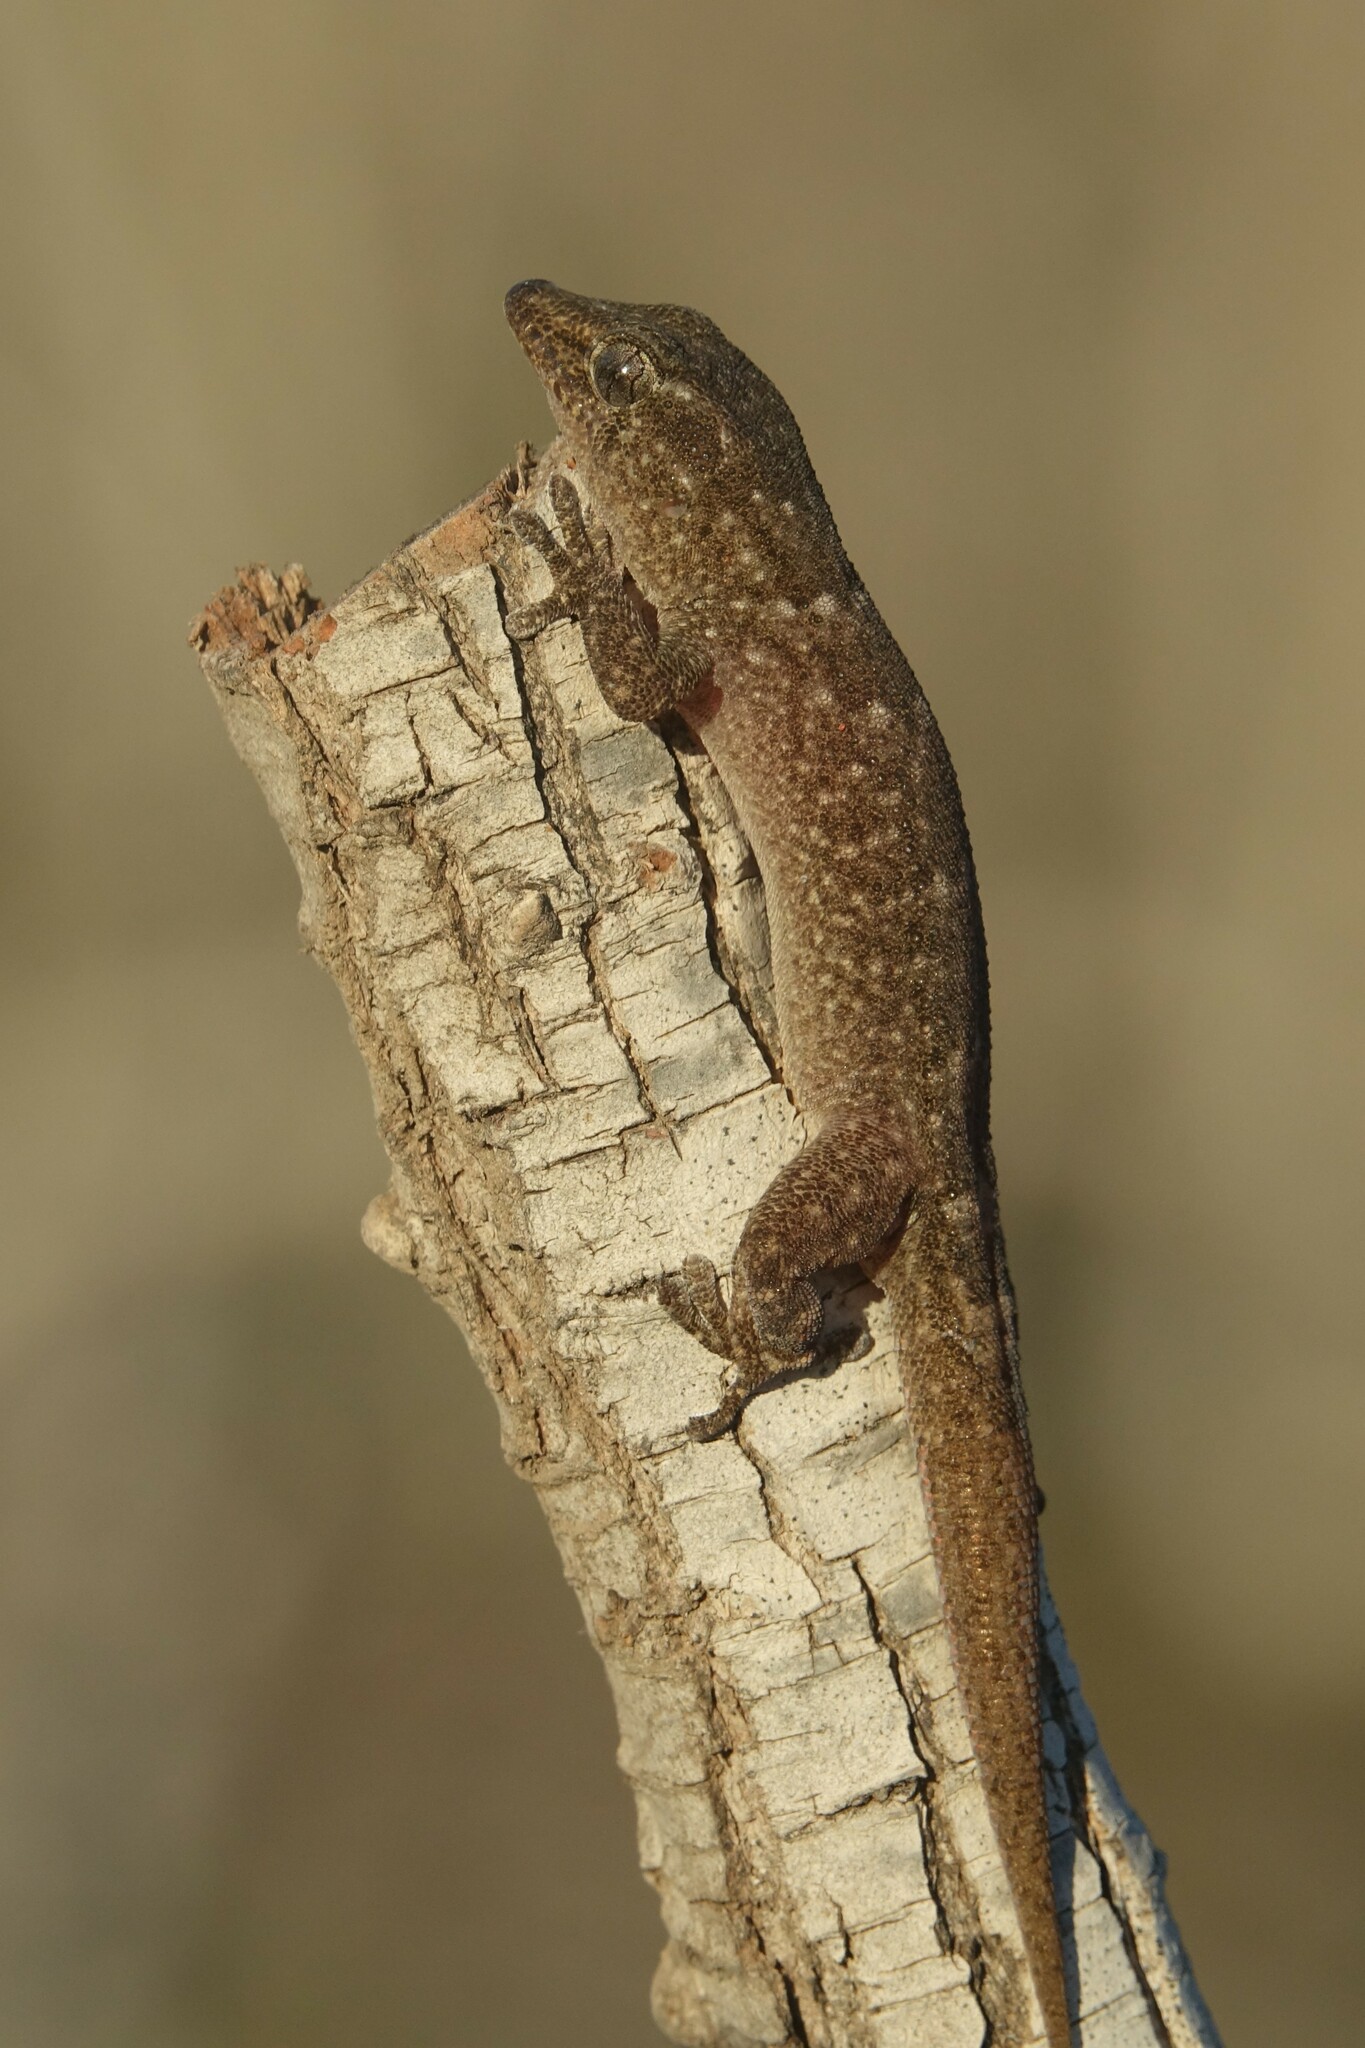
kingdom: Animalia
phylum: Chordata
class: Squamata
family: Phyllodactylidae
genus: Tarentola
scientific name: Tarentola boettgeri
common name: Boettger's wall gecko
